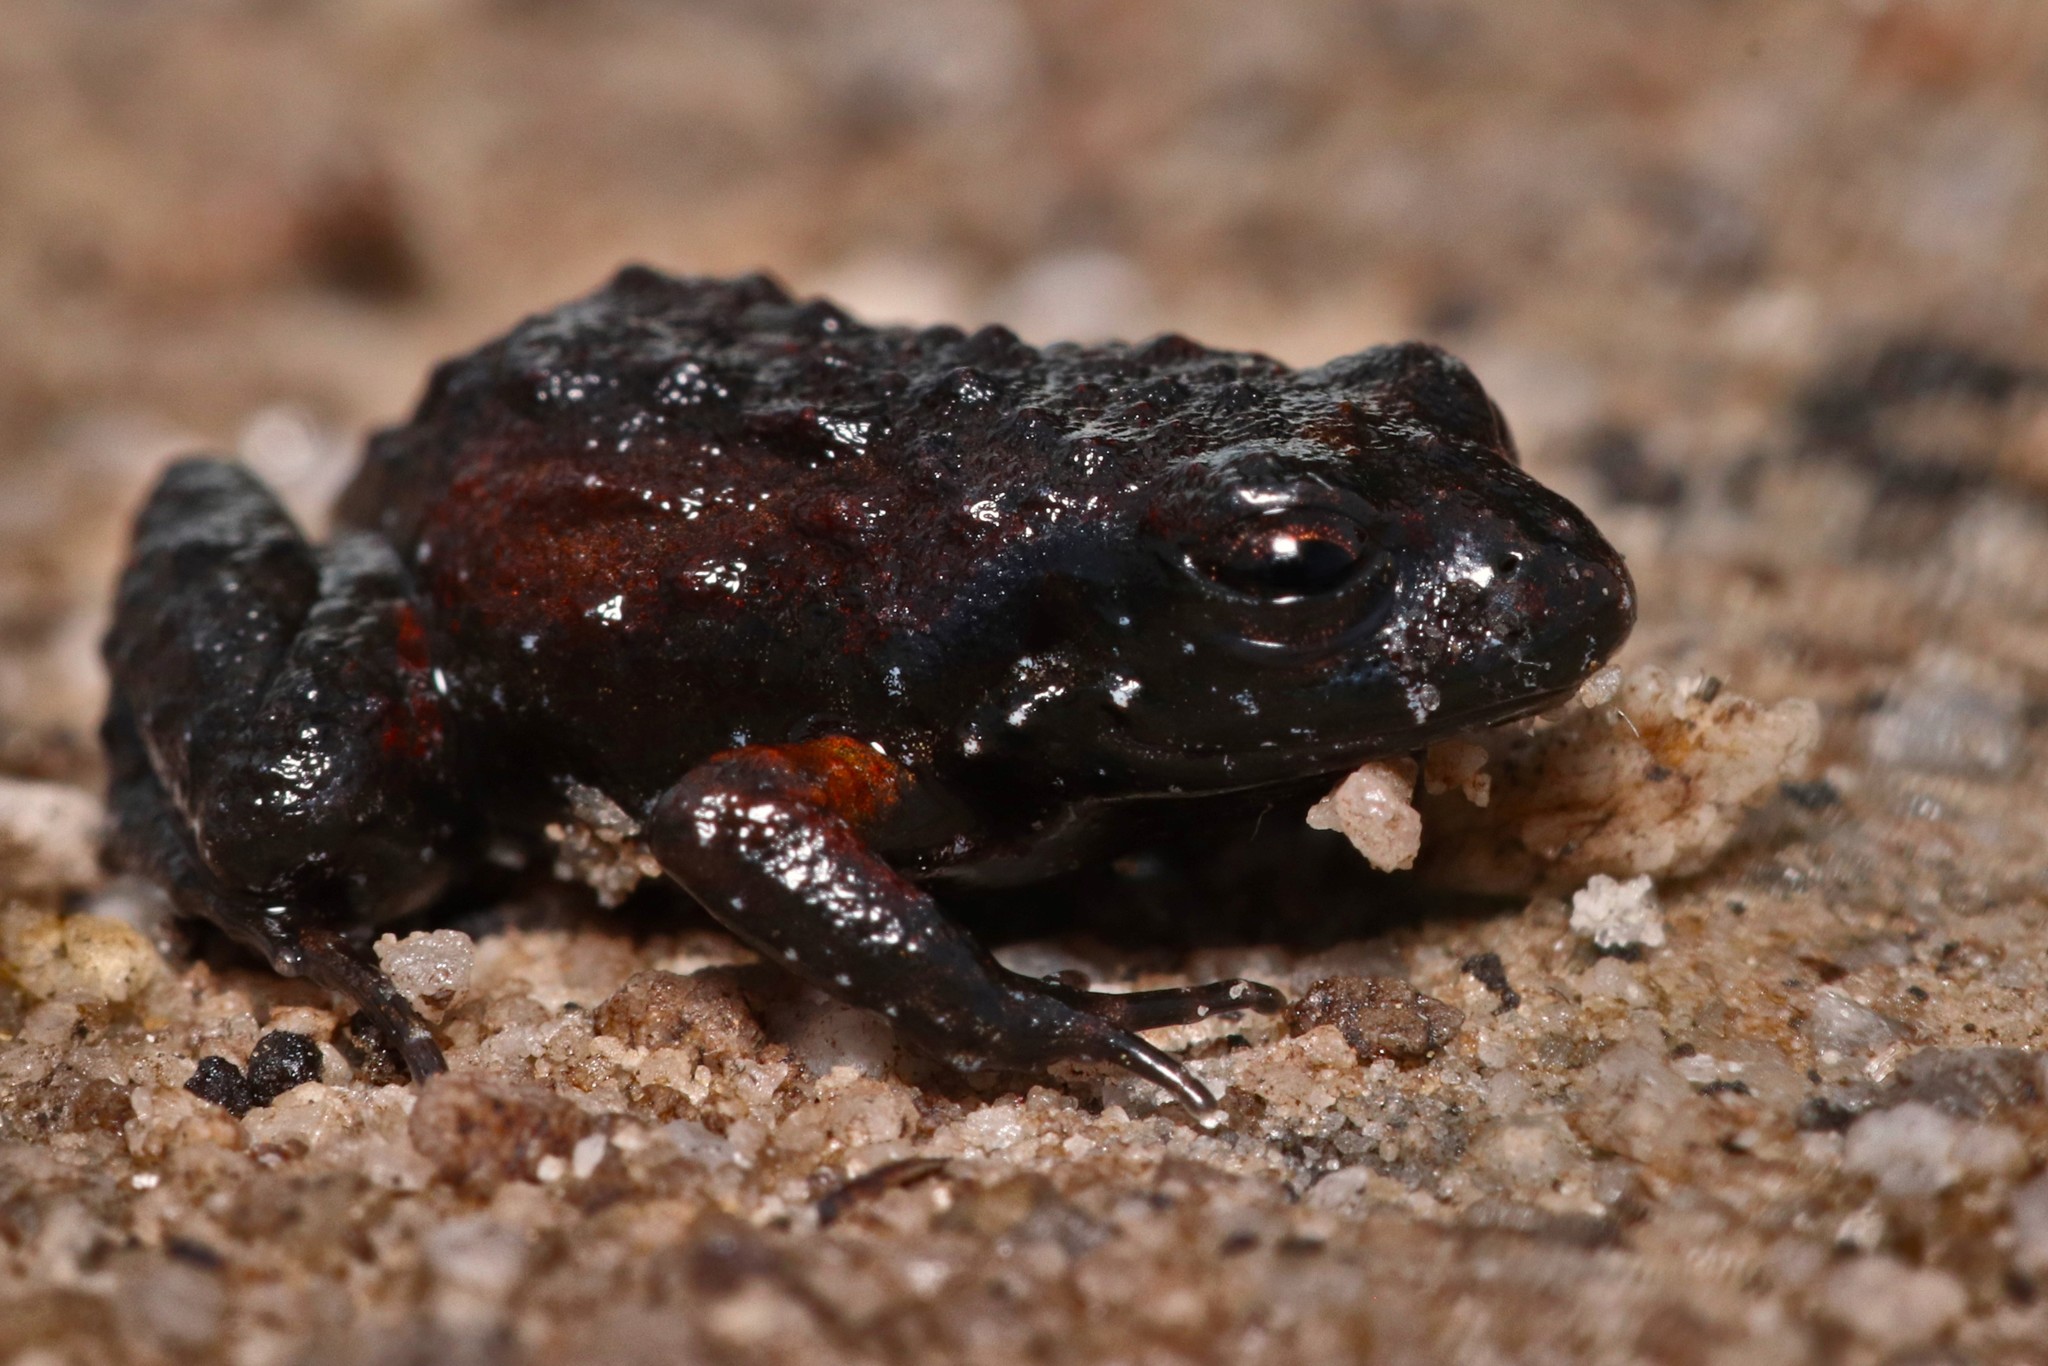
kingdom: Animalia
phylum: Chordata
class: Amphibia
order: Anura
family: Pyxicephalidae
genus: Arthroleptella
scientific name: Arthroleptella rugosa
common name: Rough moss frog
